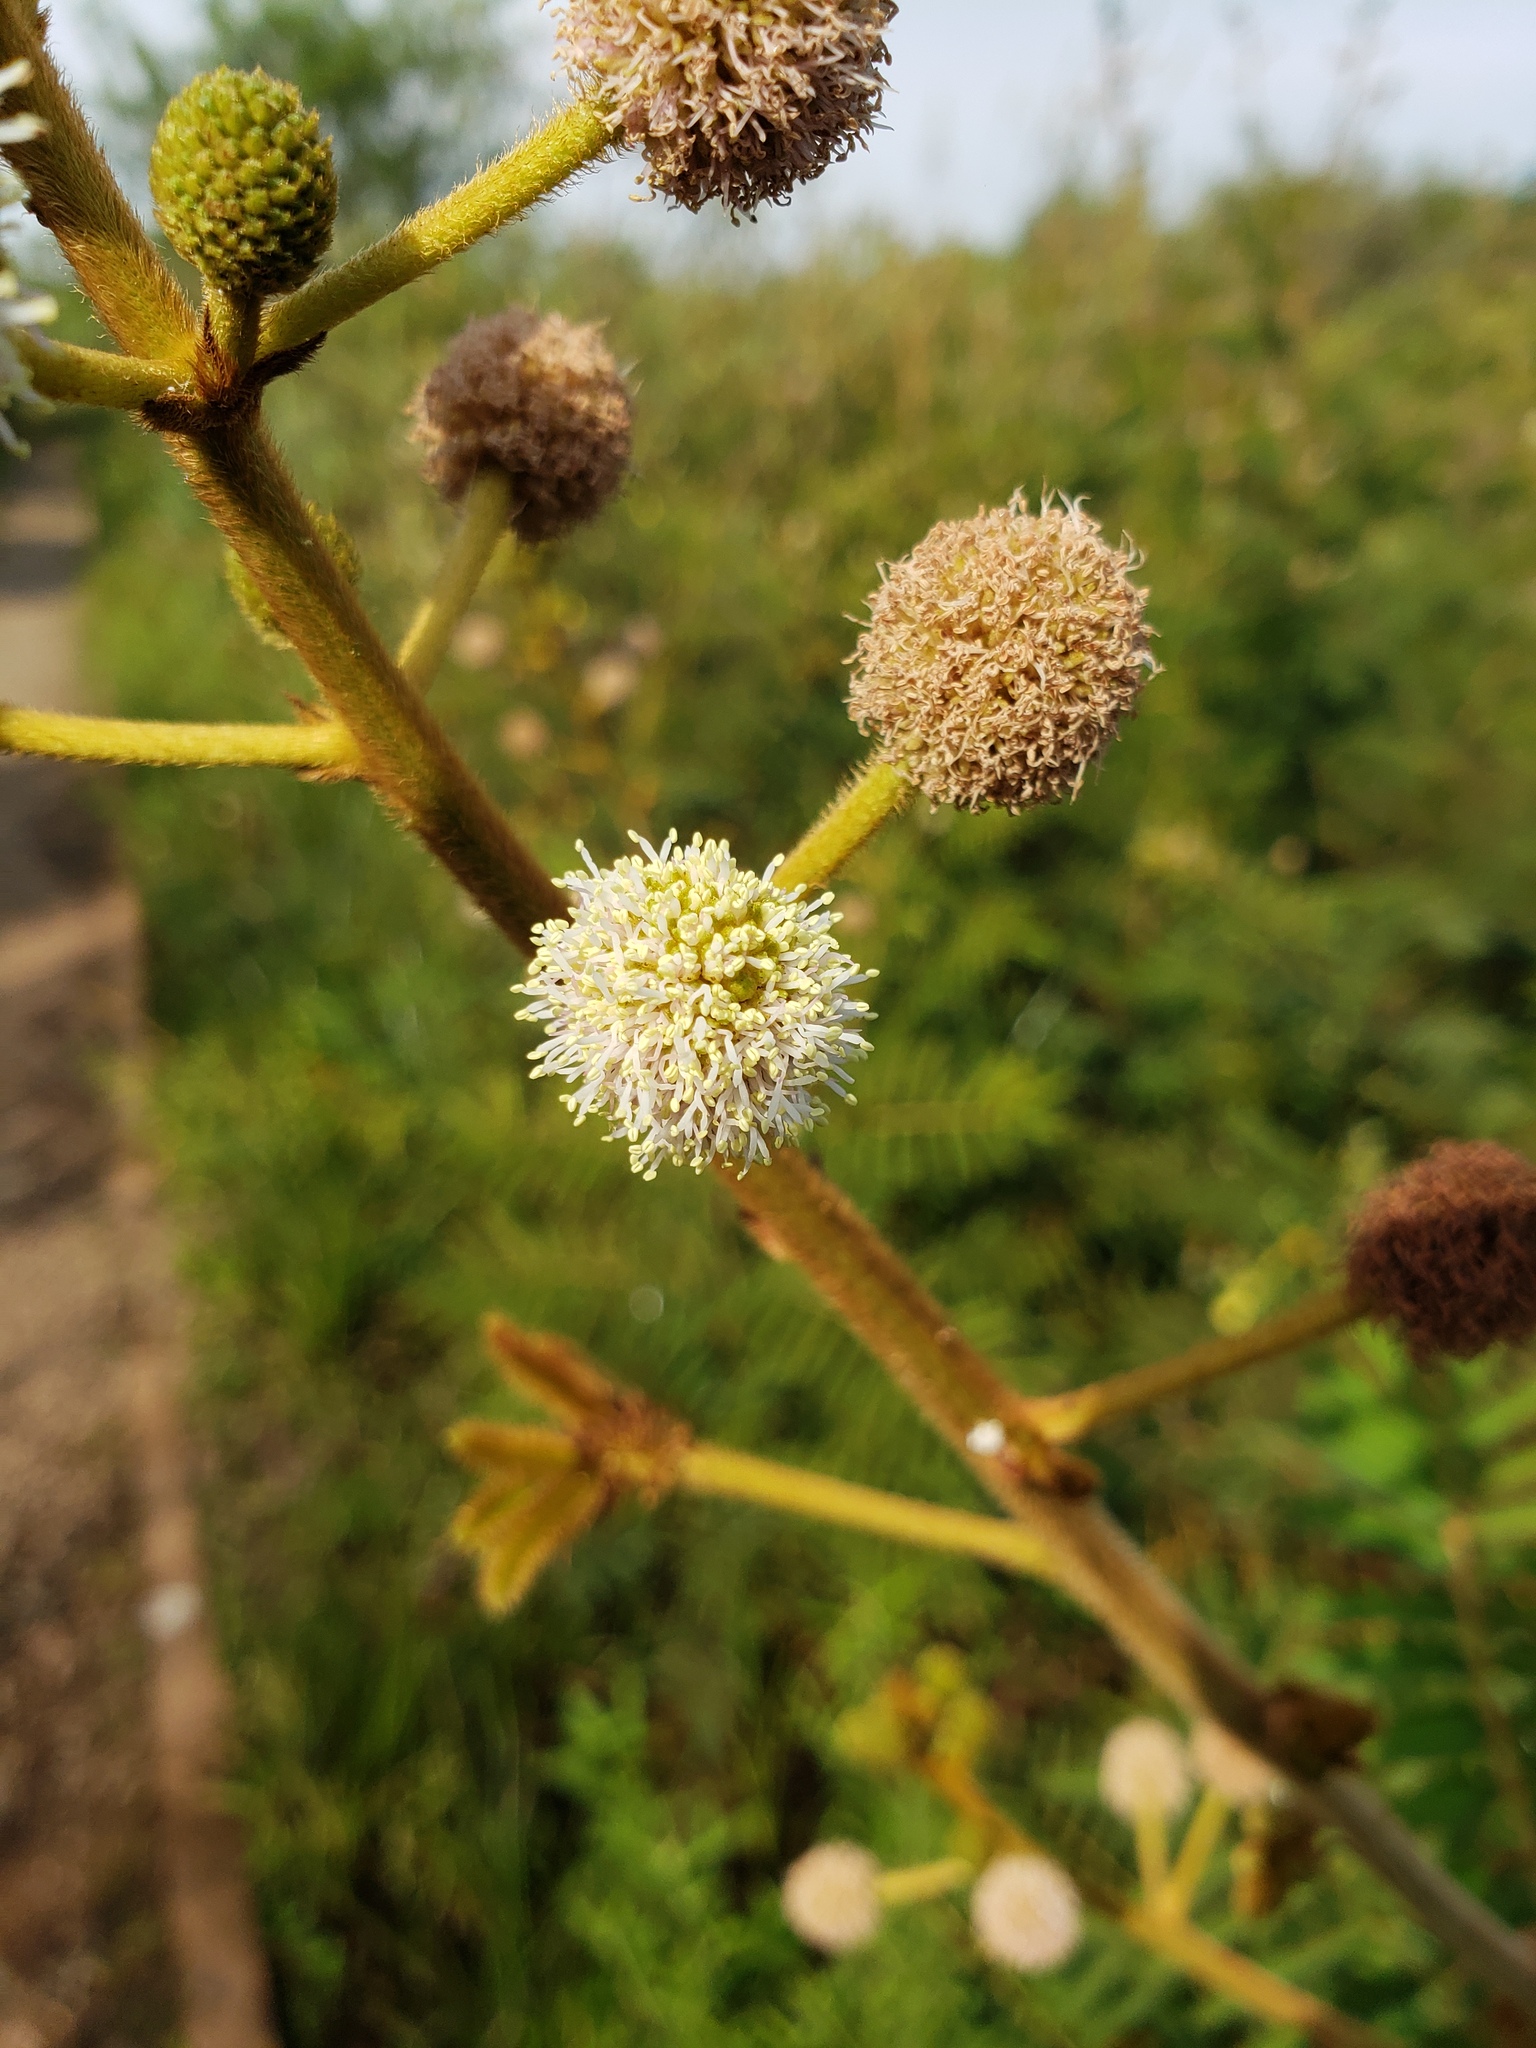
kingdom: Plantae
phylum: Tracheophyta
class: Magnoliopsida
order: Fabales
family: Fabaceae
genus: Mimosa
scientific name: Mimosa pigra
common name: Black mimosa
